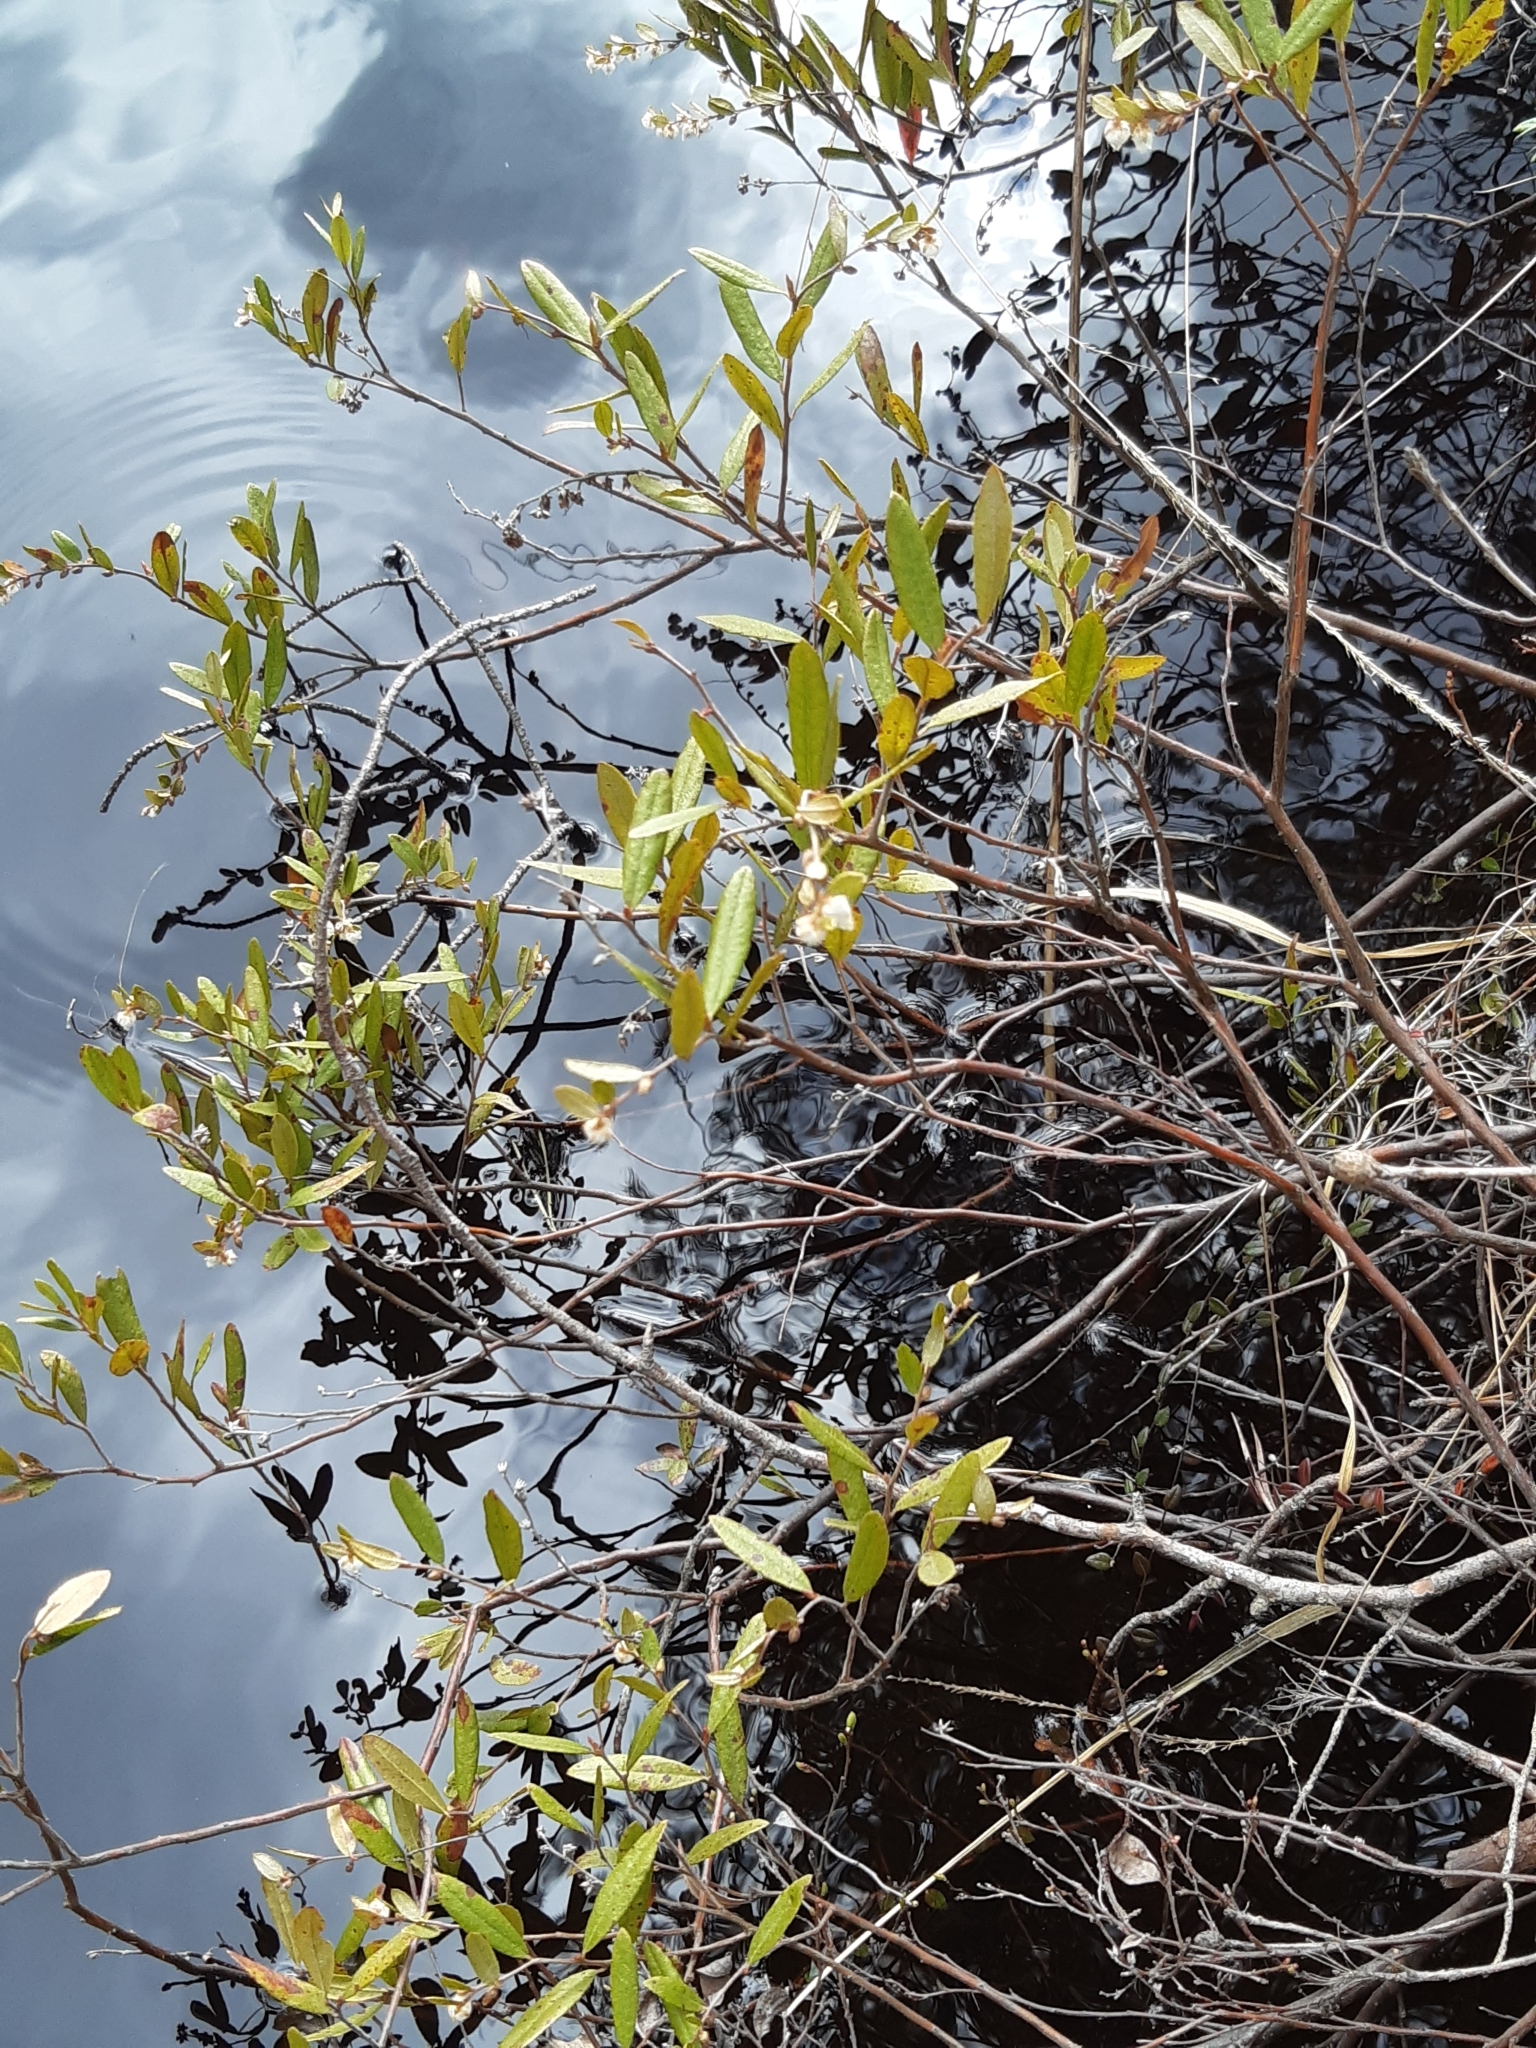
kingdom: Plantae
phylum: Tracheophyta
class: Magnoliopsida
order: Ericales
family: Ericaceae
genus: Chamaedaphne
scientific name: Chamaedaphne calyculata
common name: Leatherleaf
